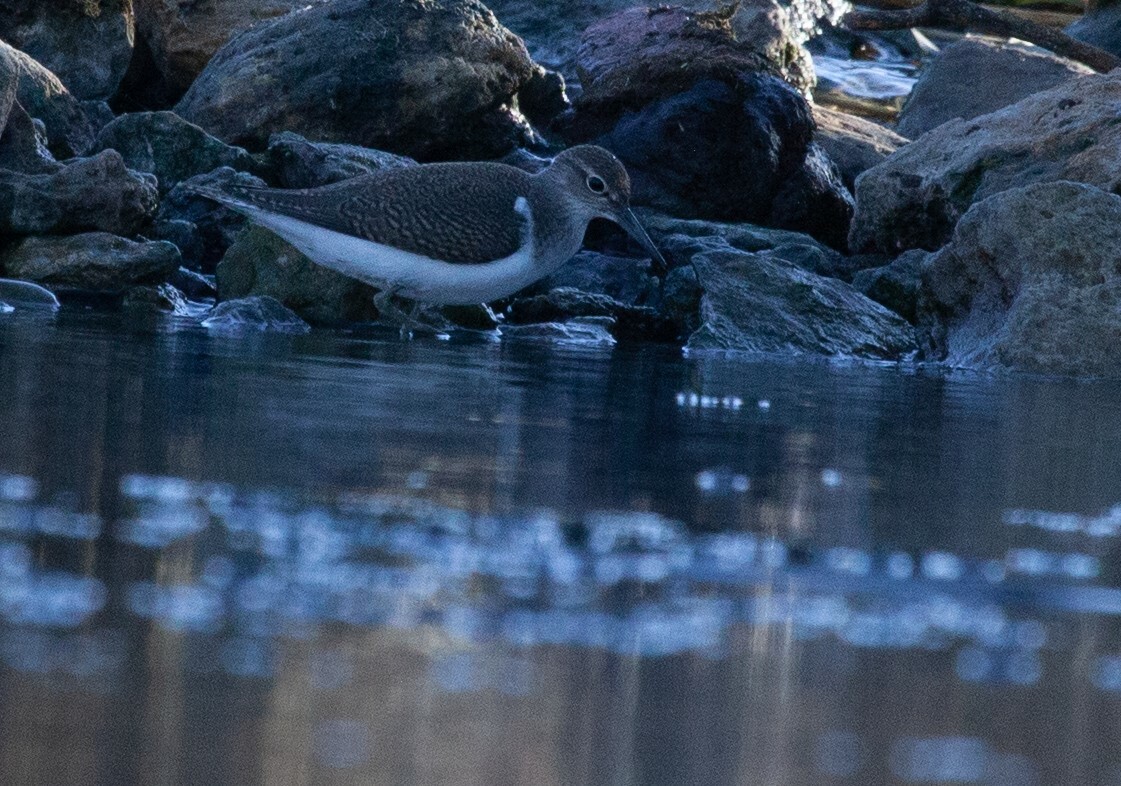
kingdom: Animalia
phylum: Chordata
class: Aves
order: Charadriiformes
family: Scolopacidae
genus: Actitis
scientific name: Actitis hypoleucos
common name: Common sandpiper
